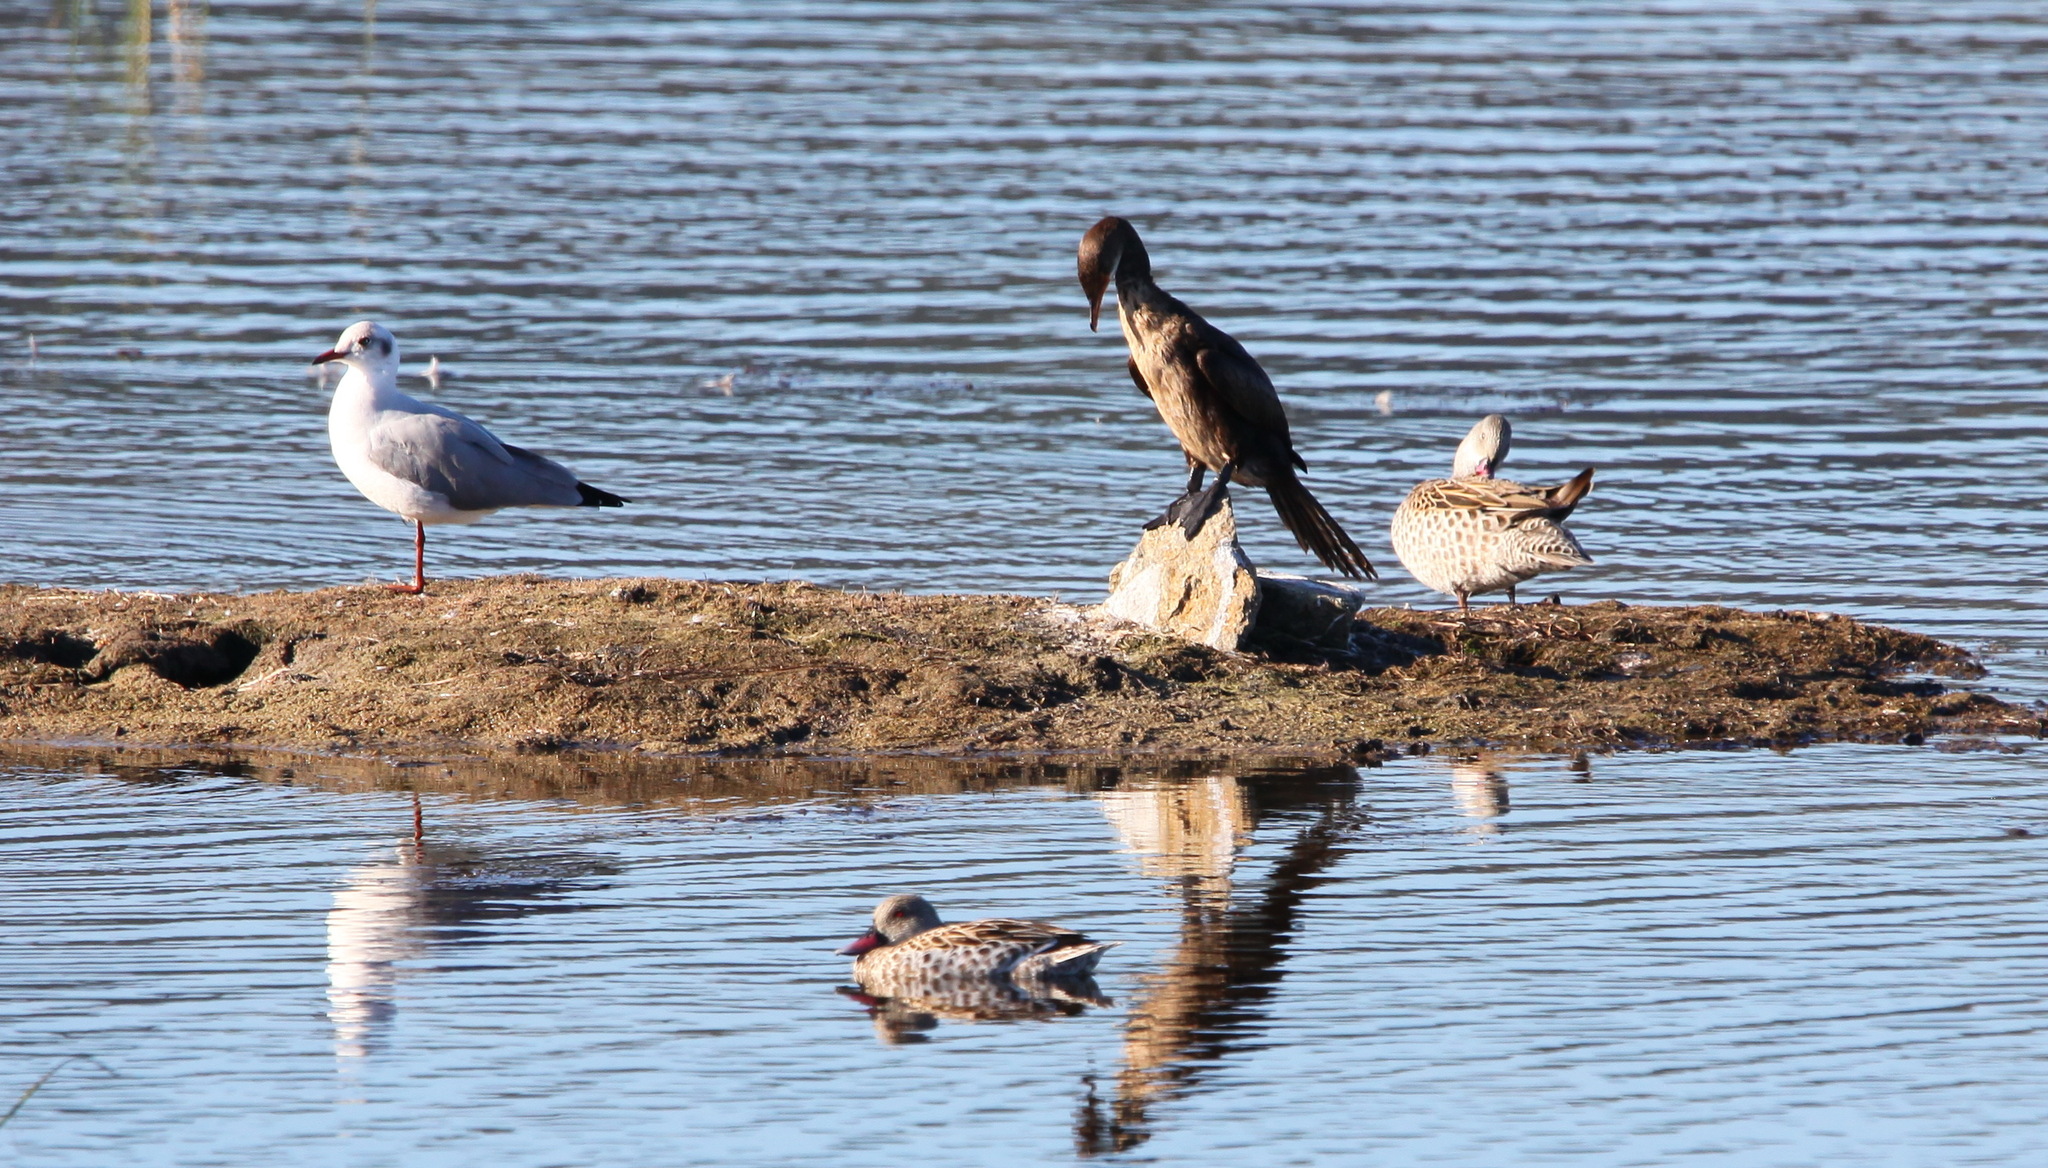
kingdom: Animalia
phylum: Chordata
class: Aves
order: Suliformes
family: Phalacrocoracidae
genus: Microcarbo
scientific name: Microcarbo africanus
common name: Long-tailed cormorant
